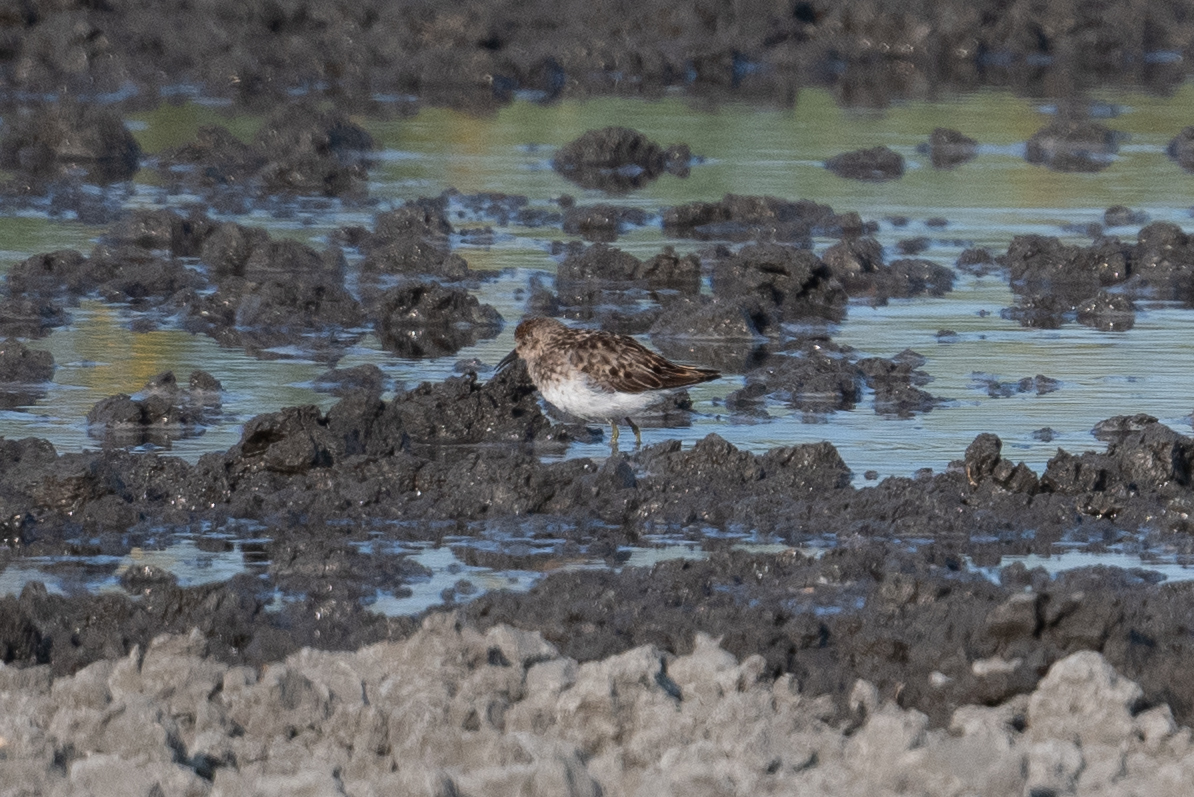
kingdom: Animalia
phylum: Chordata
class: Aves
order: Charadriiformes
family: Scolopacidae
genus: Calidris
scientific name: Calidris minutilla
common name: Least sandpiper
